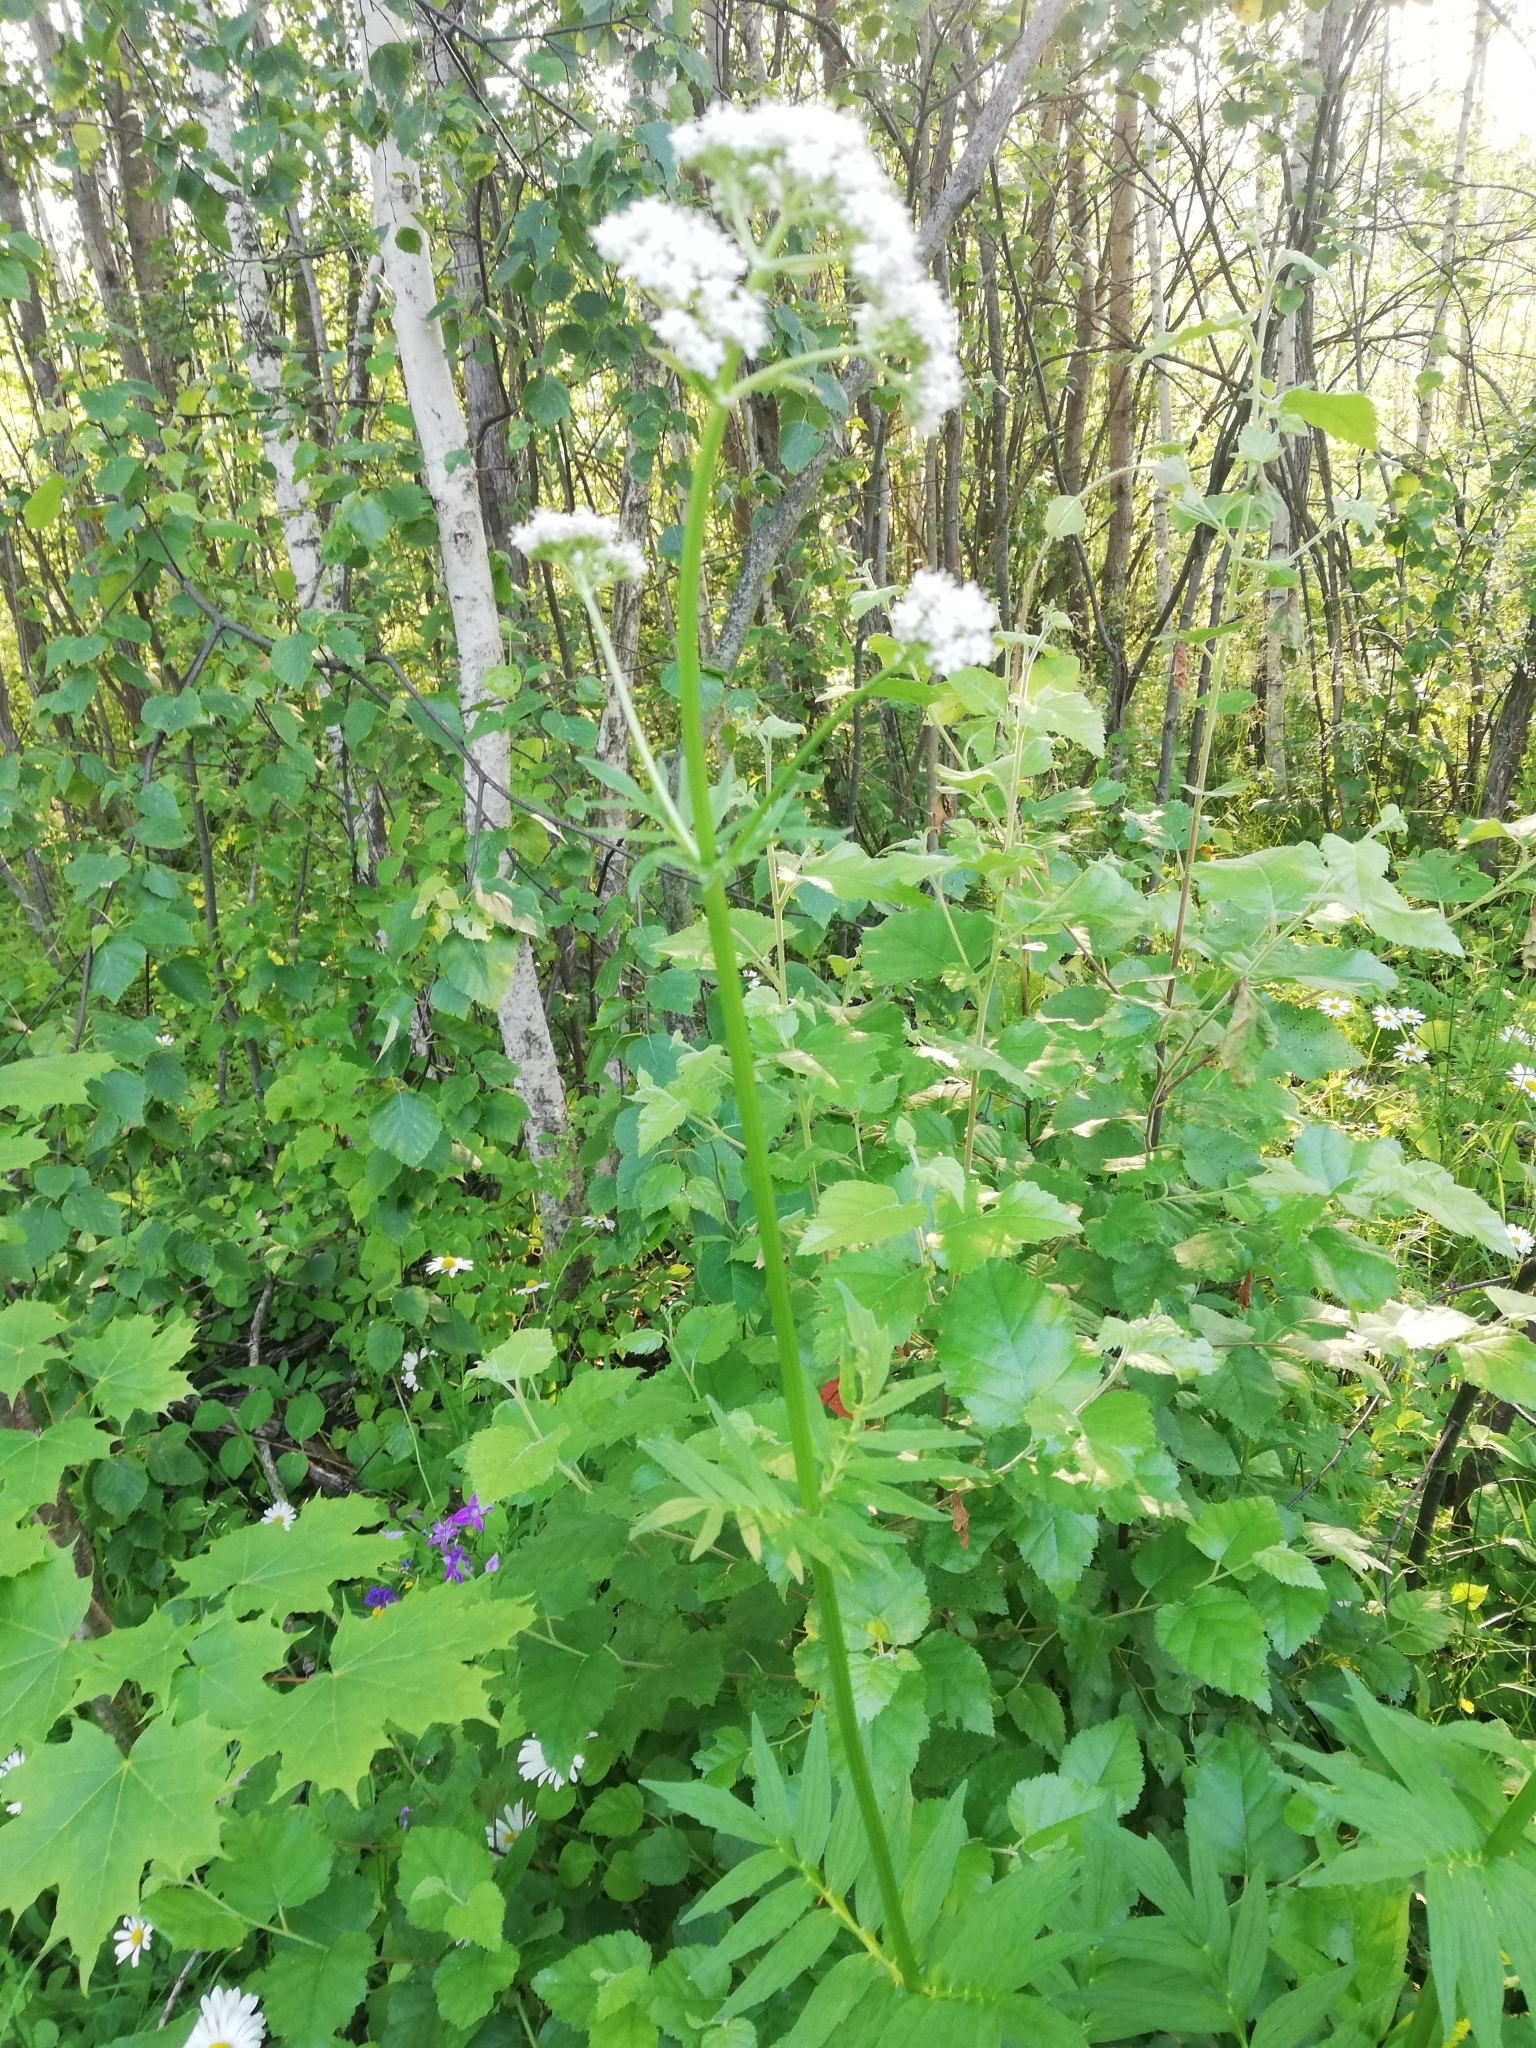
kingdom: Plantae
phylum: Tracheophyta
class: Magnoliopsida
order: Dipsacales
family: Caprifoliaceae
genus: Valeriana
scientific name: Valeriana officinalis
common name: Common valerian
